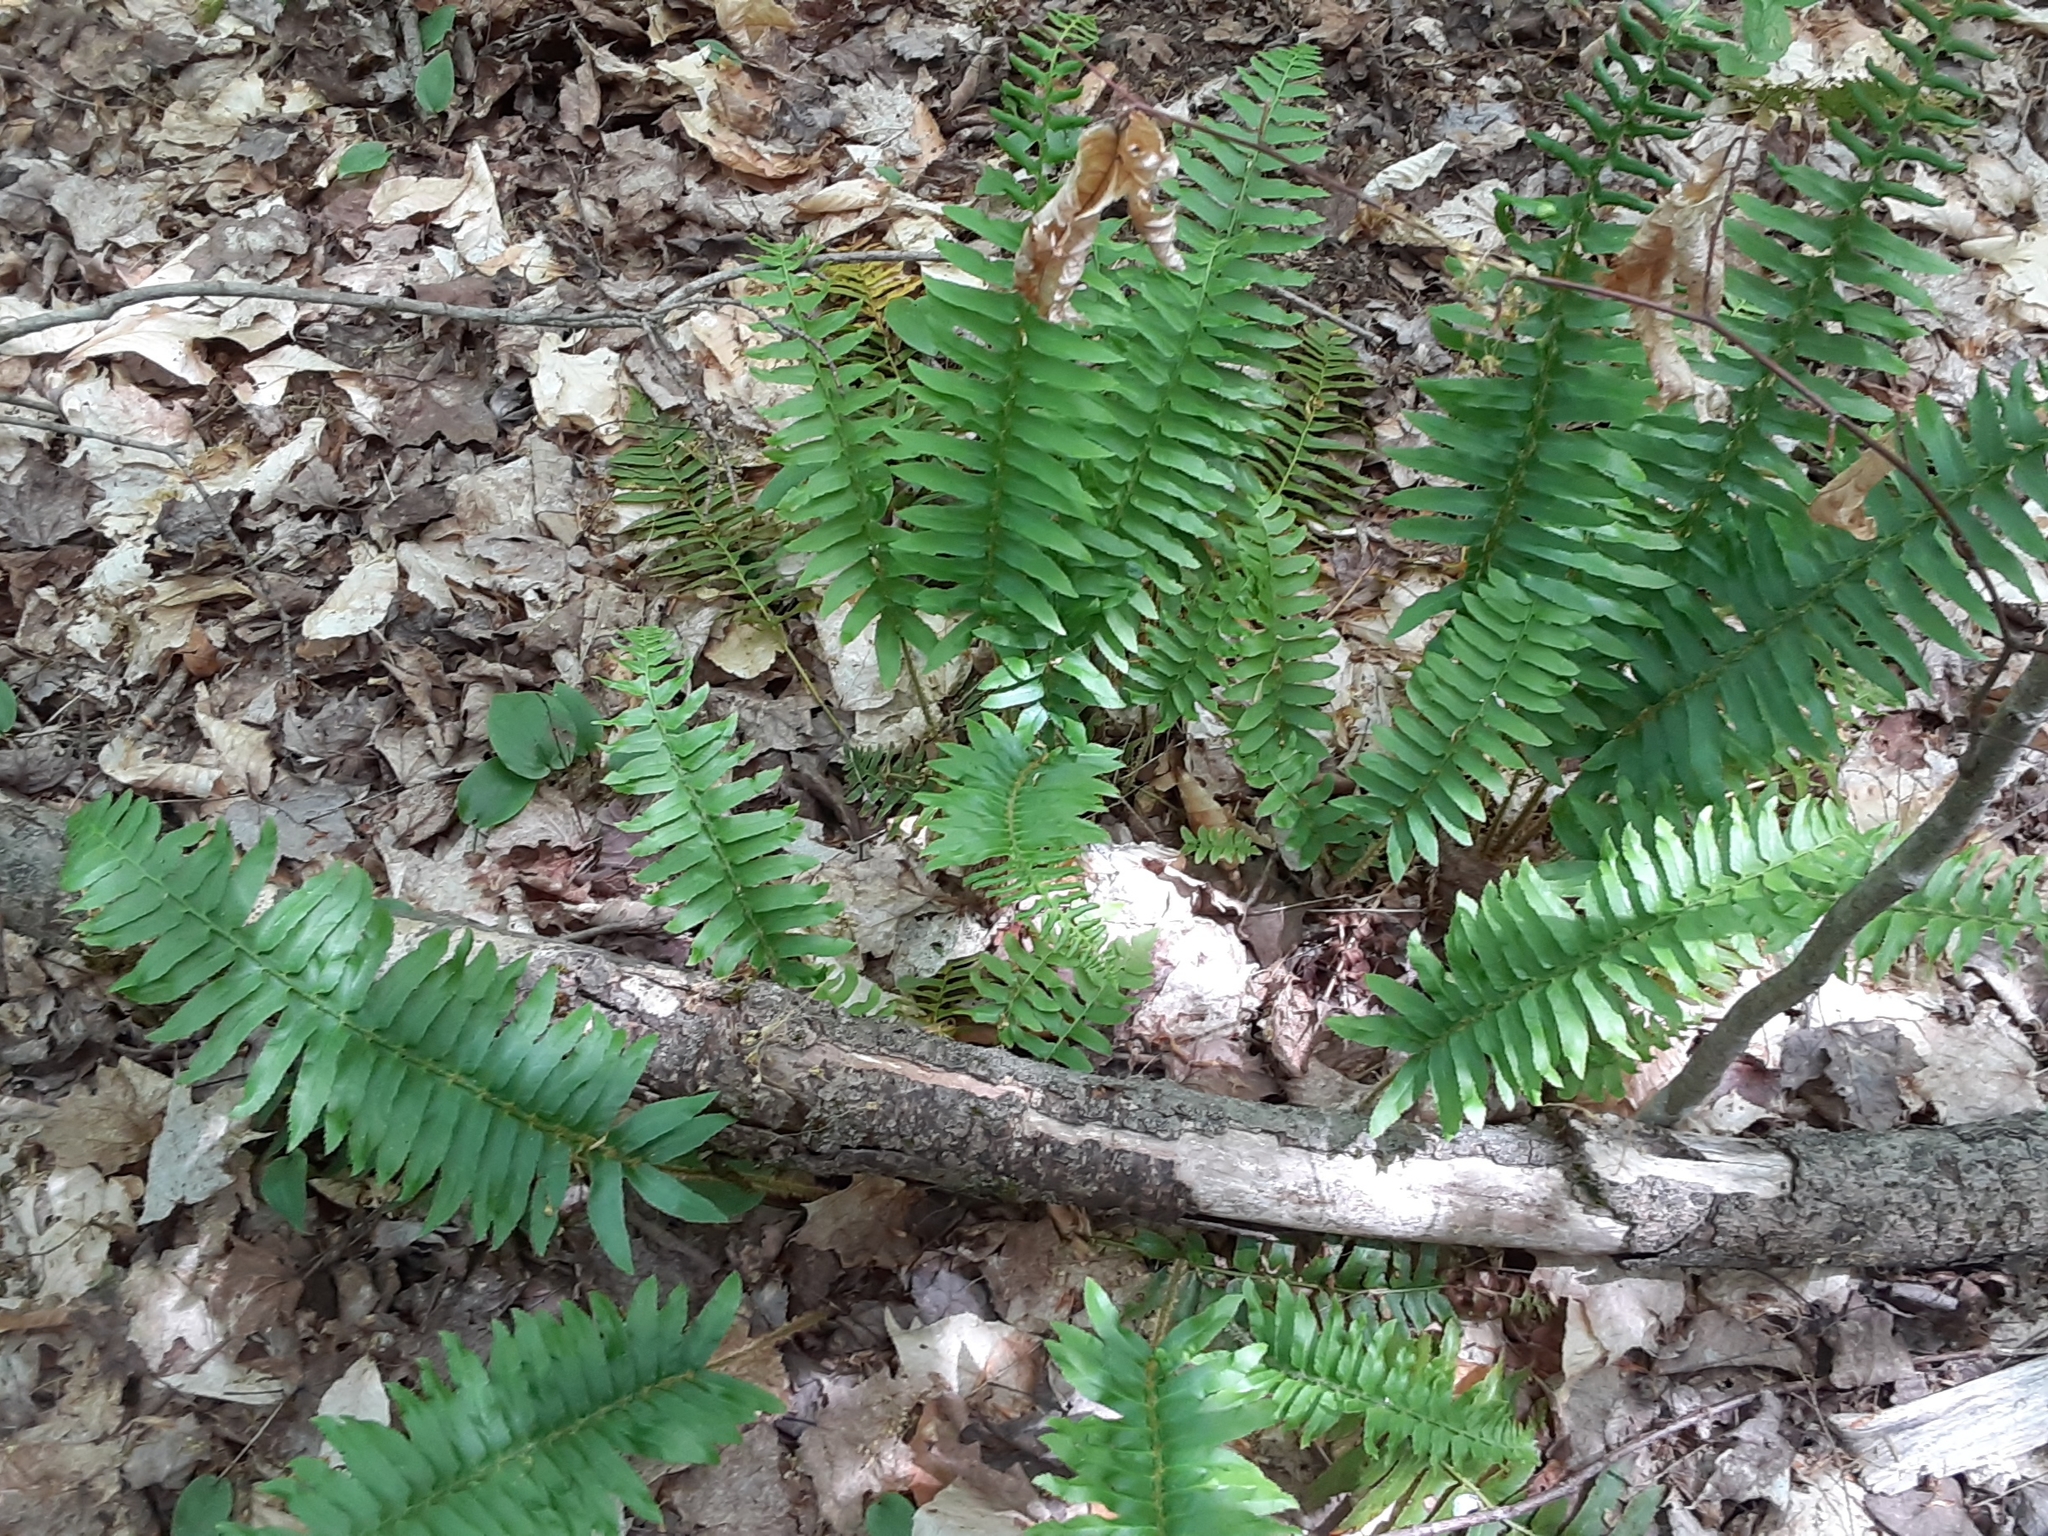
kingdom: Plantae
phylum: Tracheophyta
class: Polypodiopsida
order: Polypodiales
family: Dryopteridaceae
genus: Polystichum
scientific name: Polystichum acrostichoides
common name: Christmas fern
